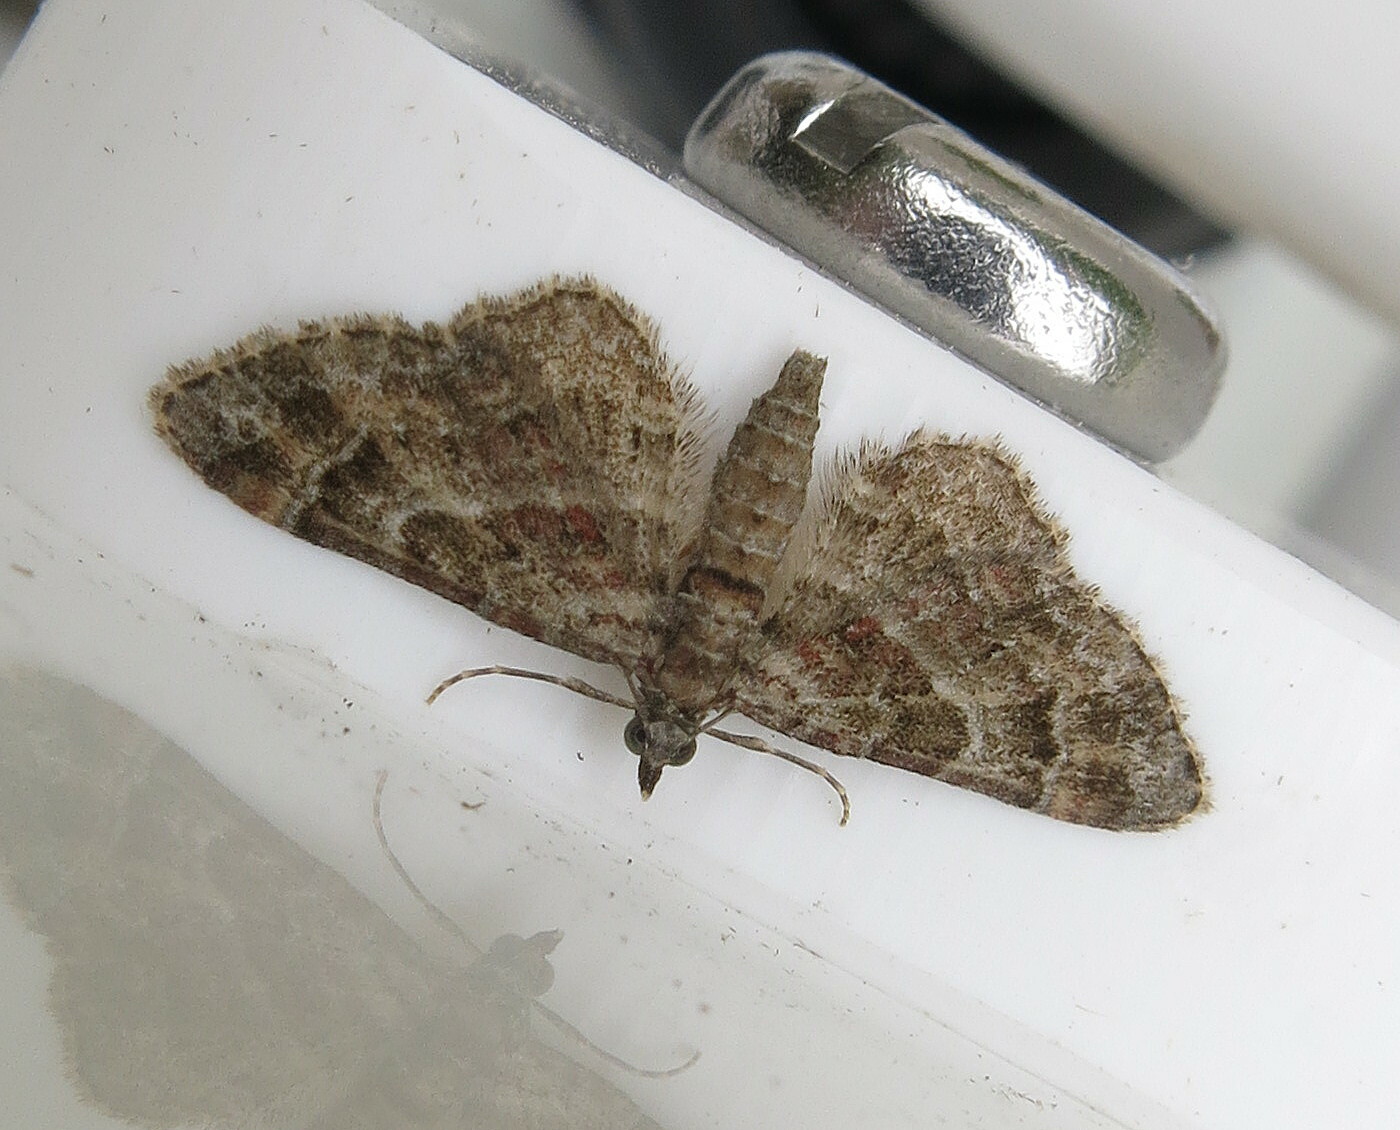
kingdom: Animalia
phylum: Arthropoda
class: Insecta
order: Lepidoptera
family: Geometridae
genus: Gymnoscelis
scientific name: Gymnoscelis rufifasciata
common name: Double-striped pug
